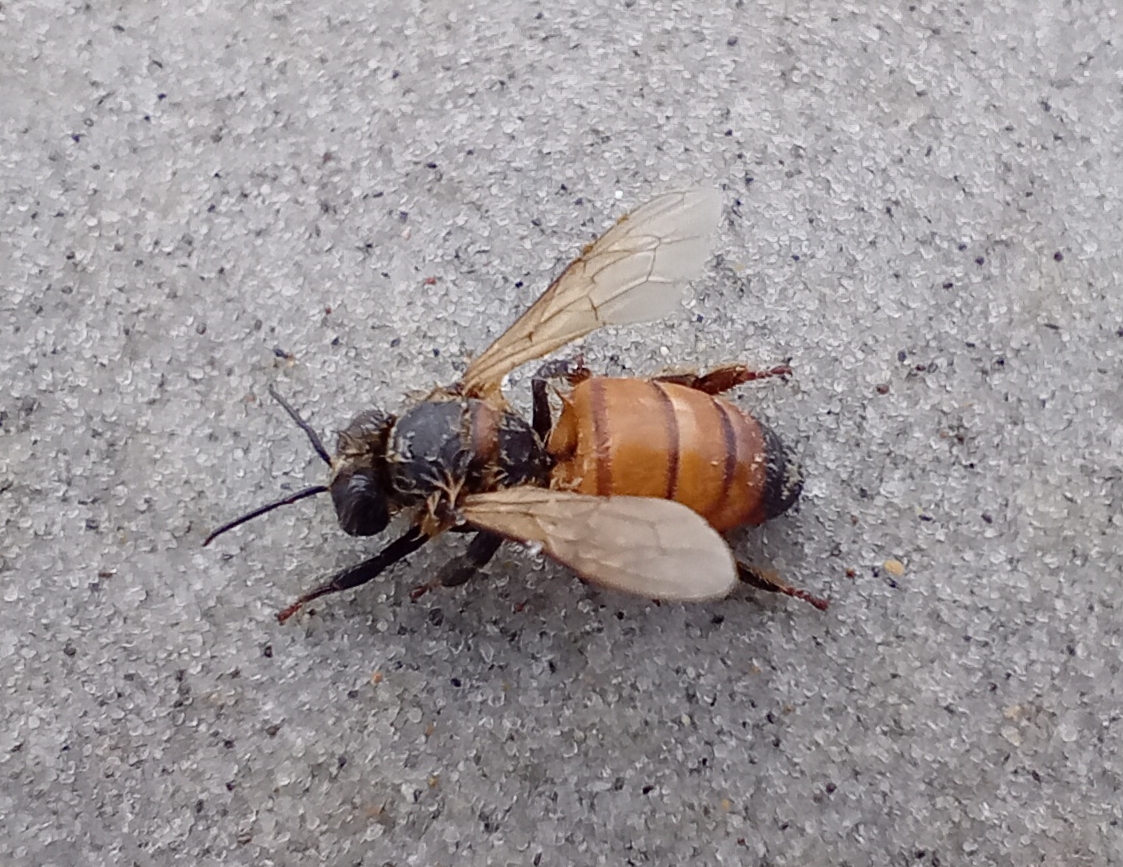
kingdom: Animalia
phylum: Arthropoda
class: Insecta
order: Hymenoptera
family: Apidae
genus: Apis
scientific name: Apis mellifera
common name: Honey bee
